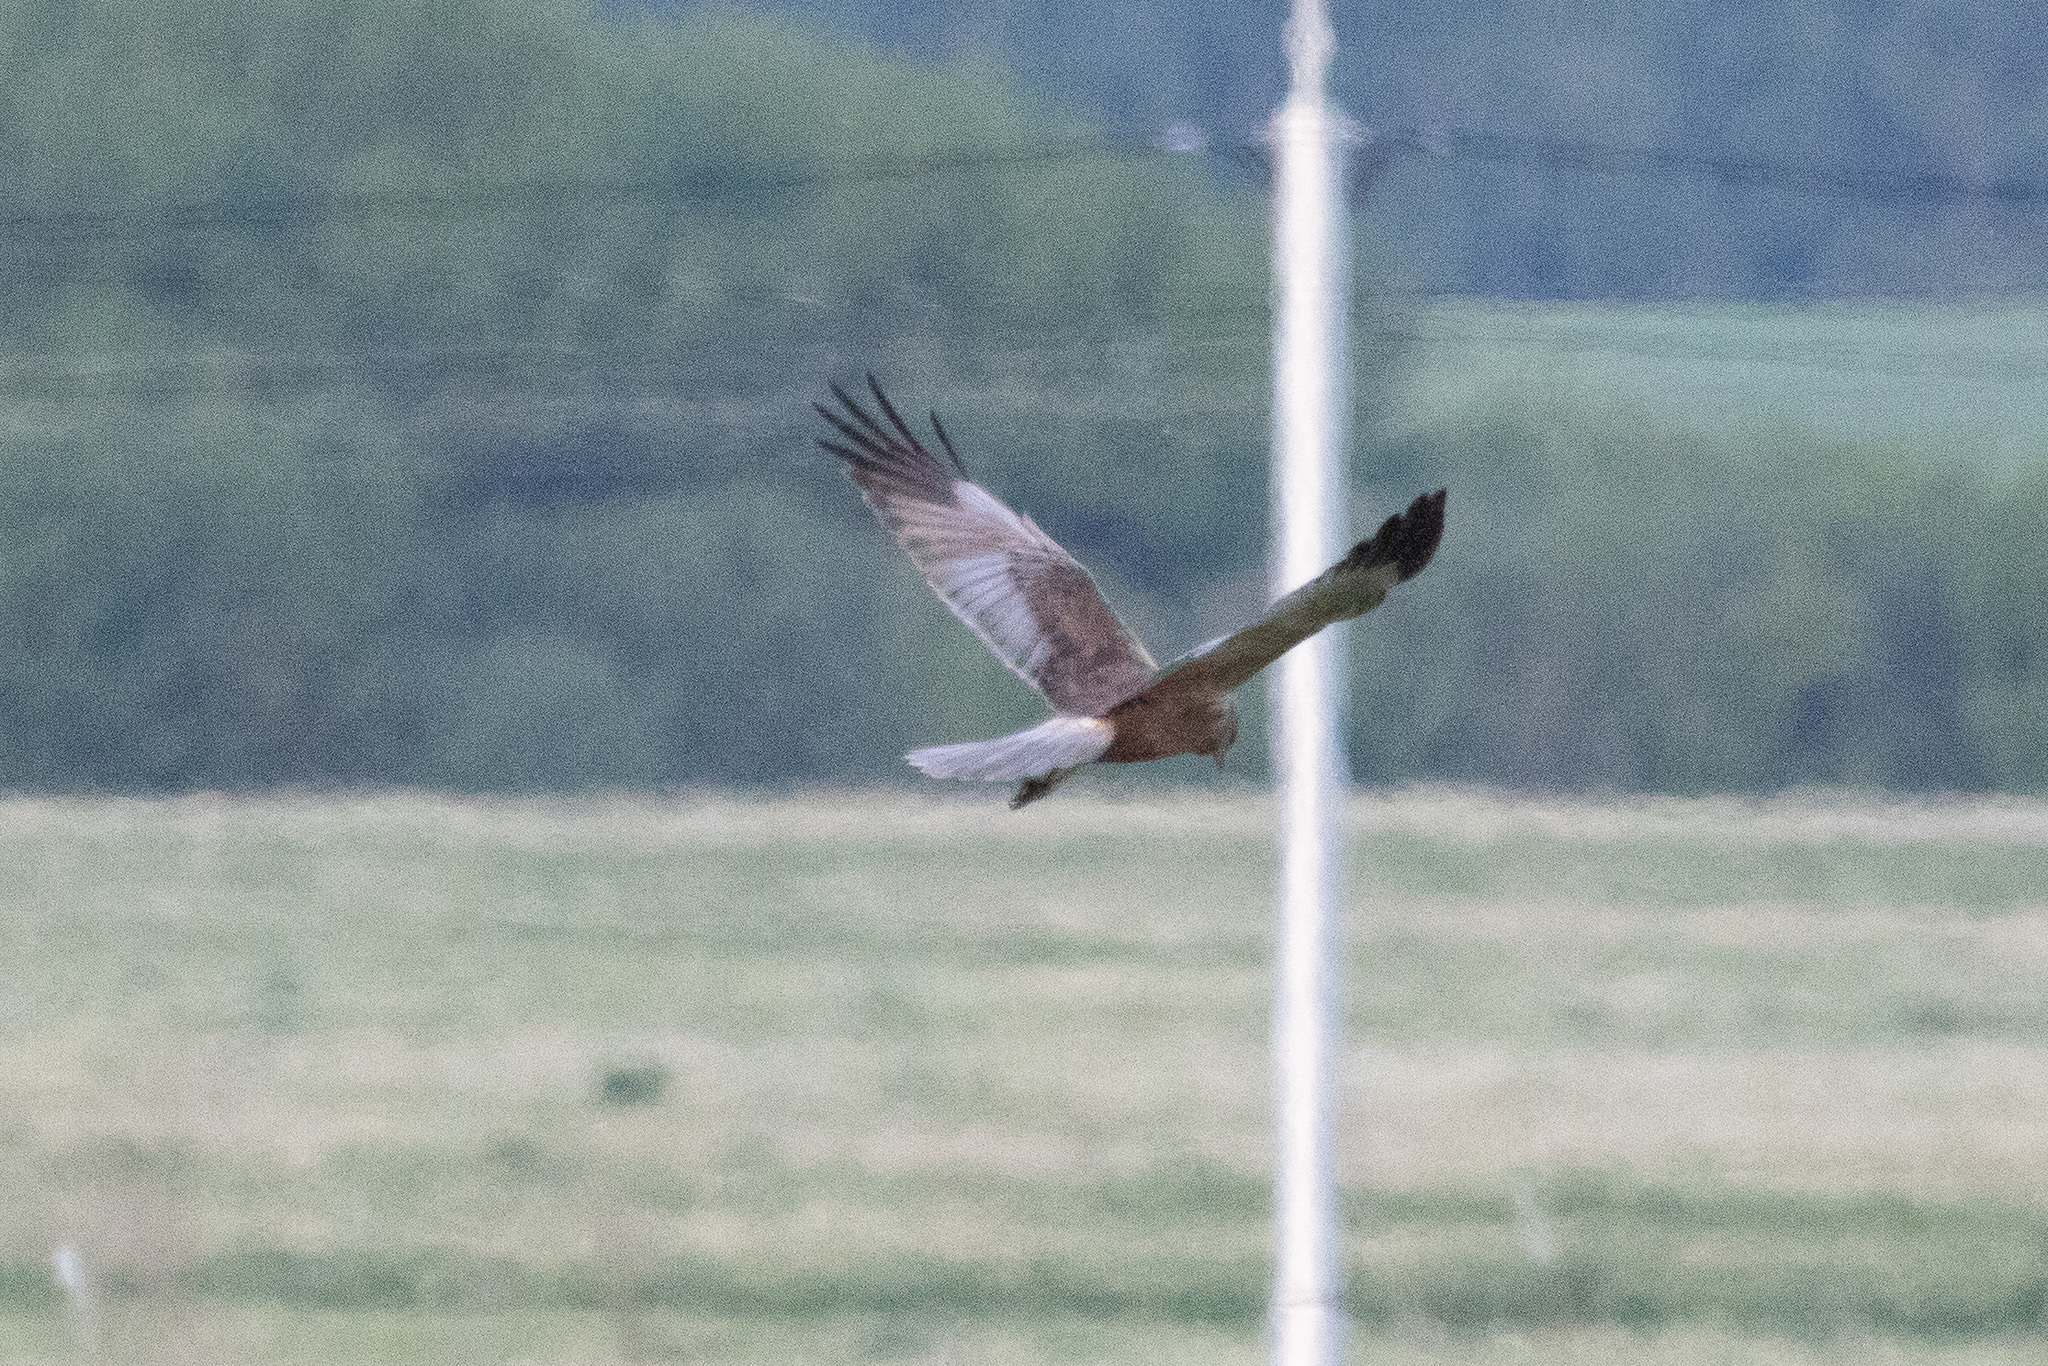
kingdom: Animalia
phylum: Chordata
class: Aves
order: Accipitriformes
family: Accipitridae
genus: Circus
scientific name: Circus aeruginosus
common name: Western marsh harrier
